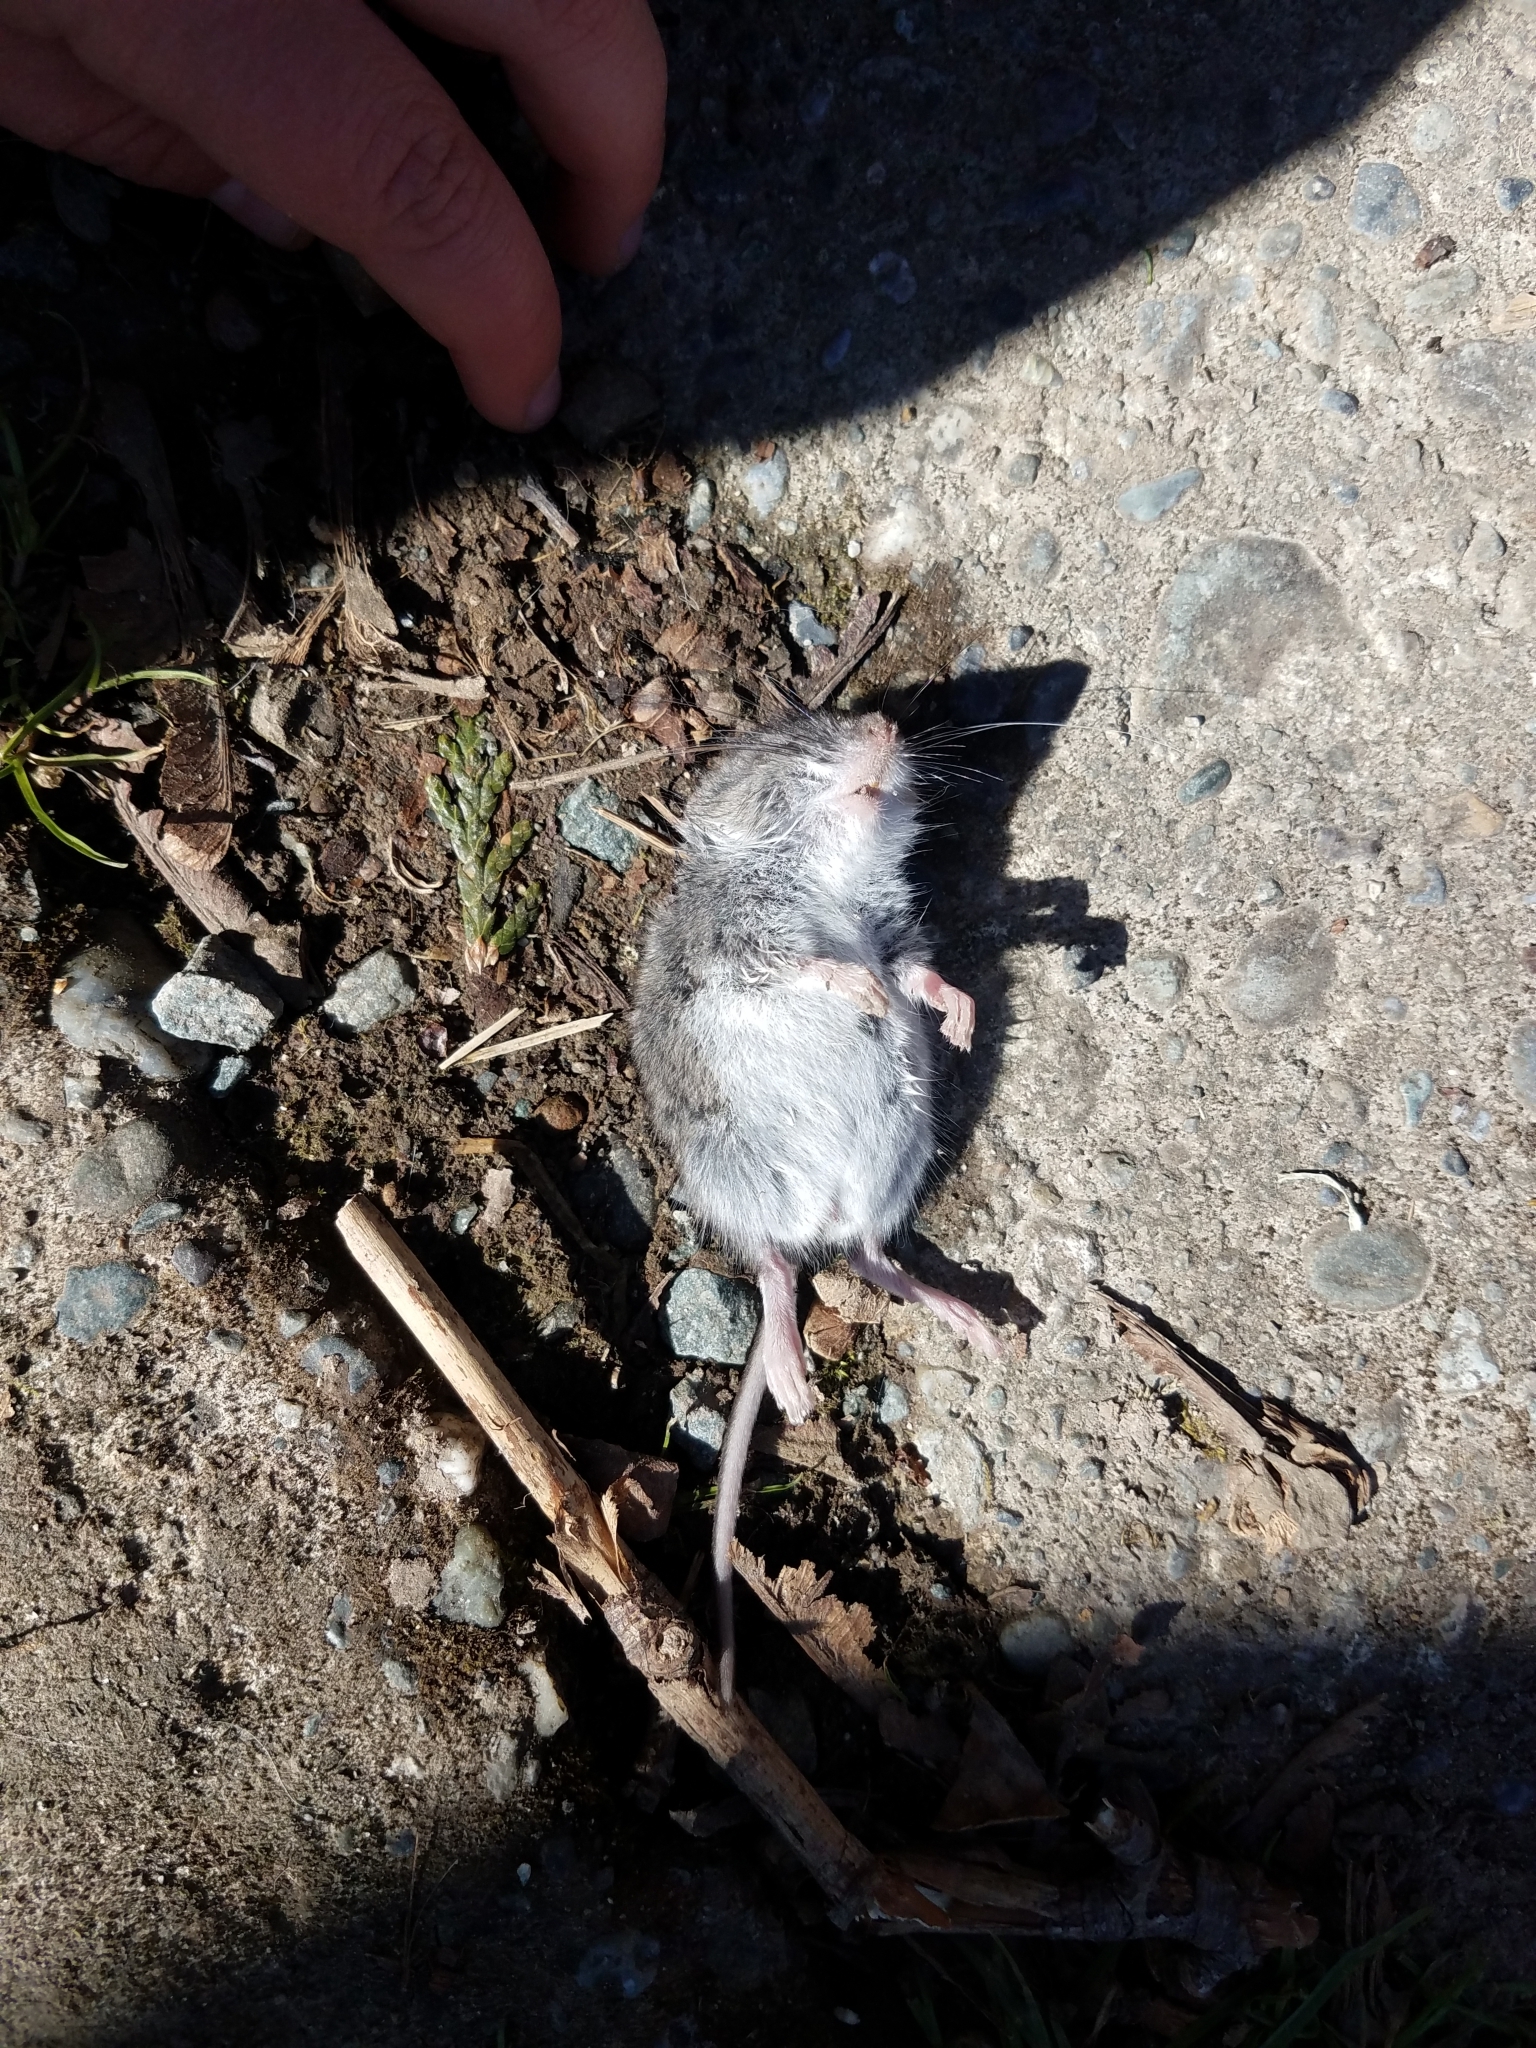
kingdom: Animalia
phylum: Chordata
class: Mammalia
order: Rodentia
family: Cricetidae
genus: Peromyscus
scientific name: Peromyscus maniculatus
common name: Deer mouse
